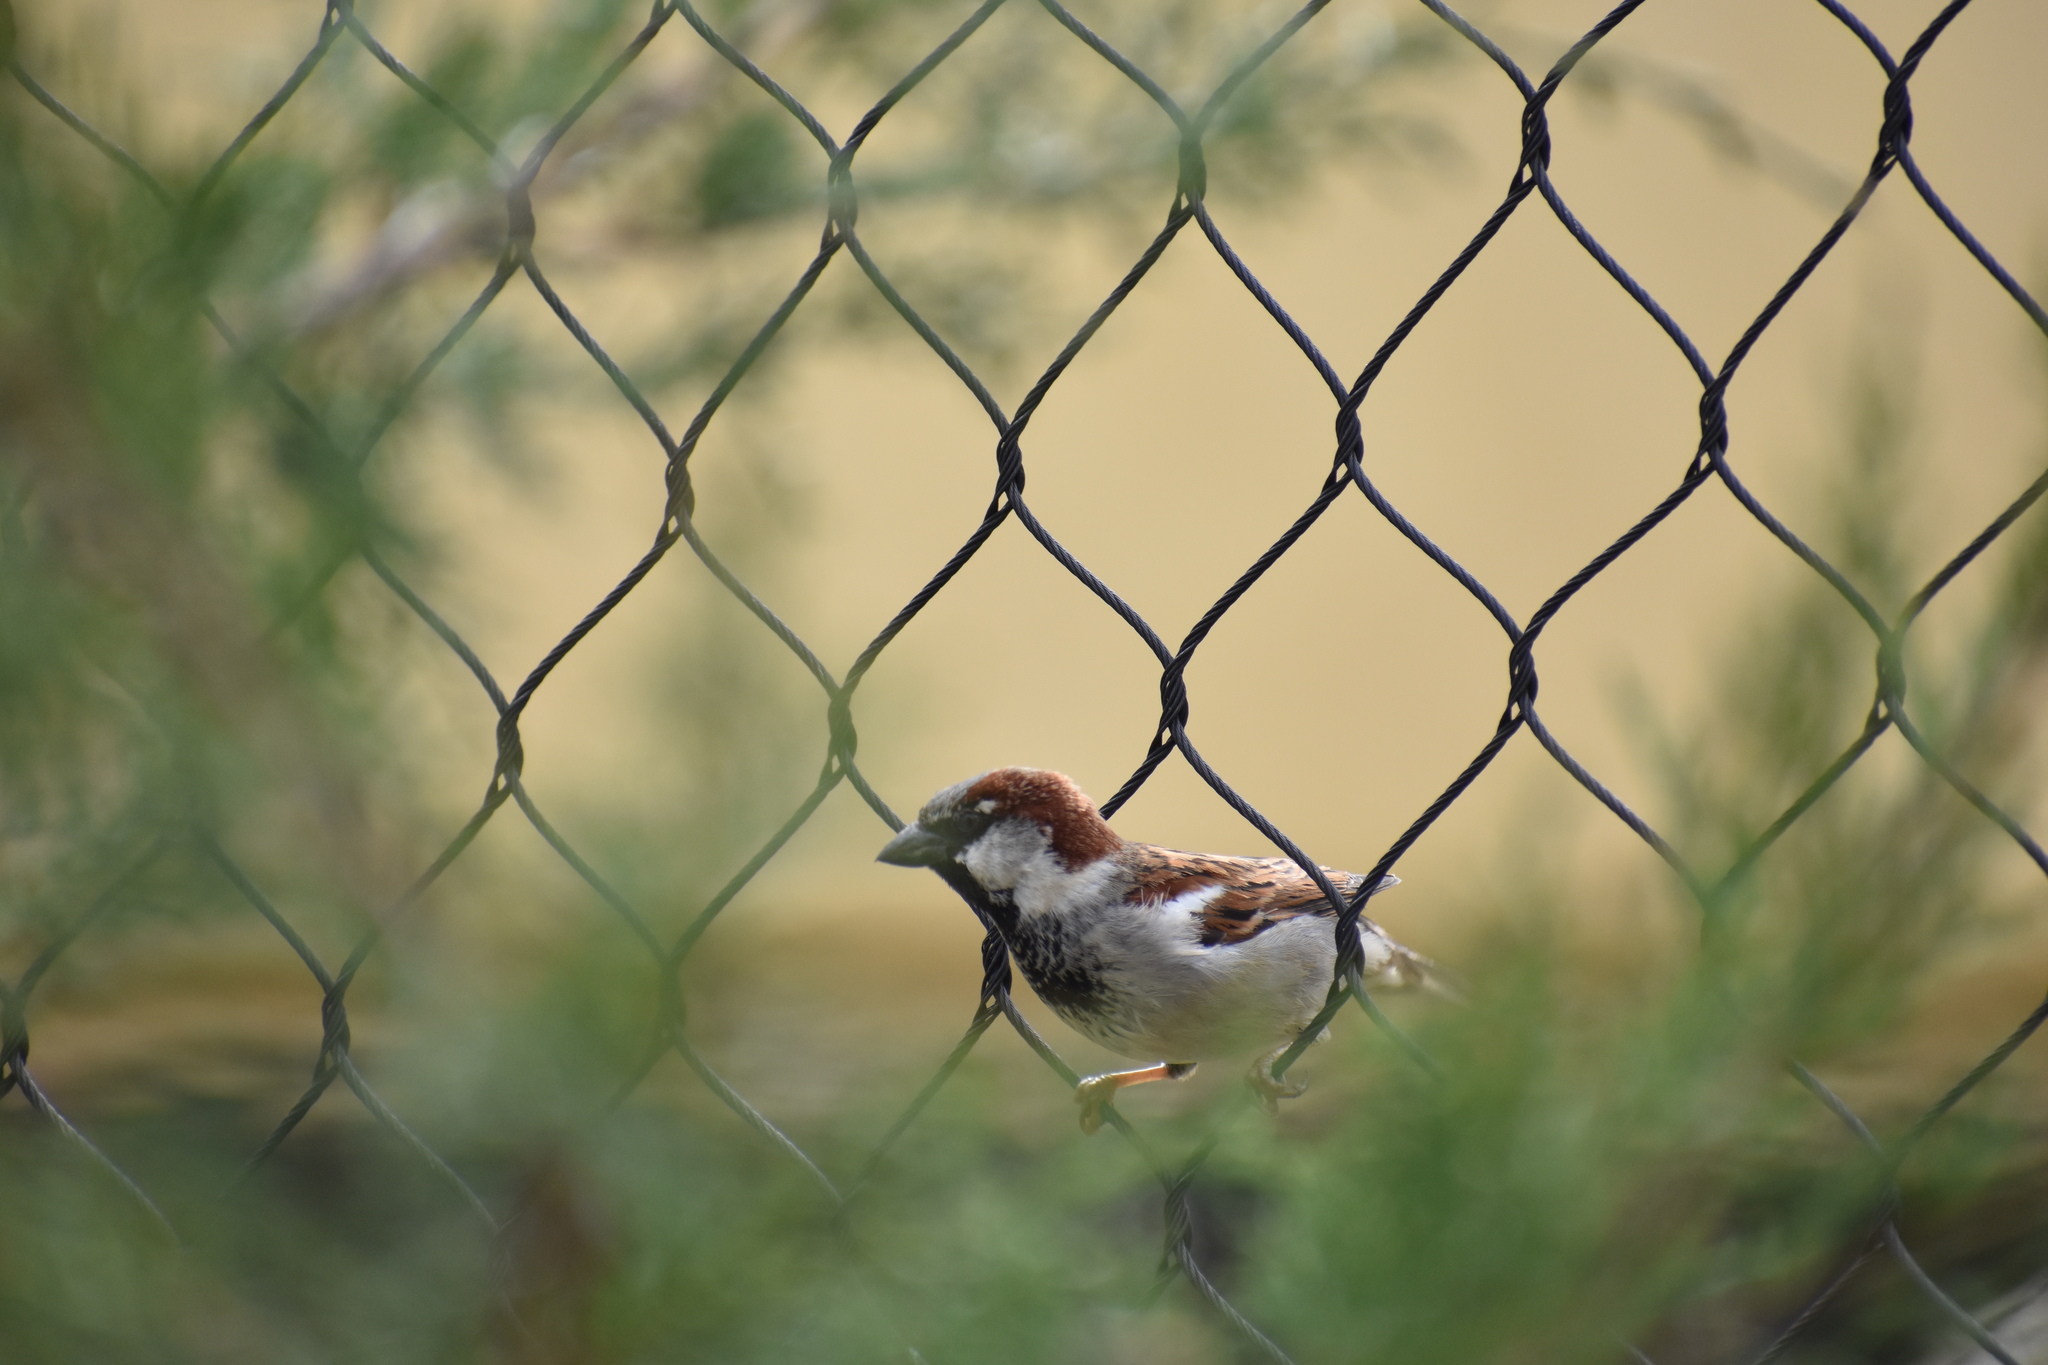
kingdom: Animalia
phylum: Chordata
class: Aves
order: Passeriformes
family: Passeridae
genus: Passer
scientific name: Passer domesticus
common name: House sparrow
